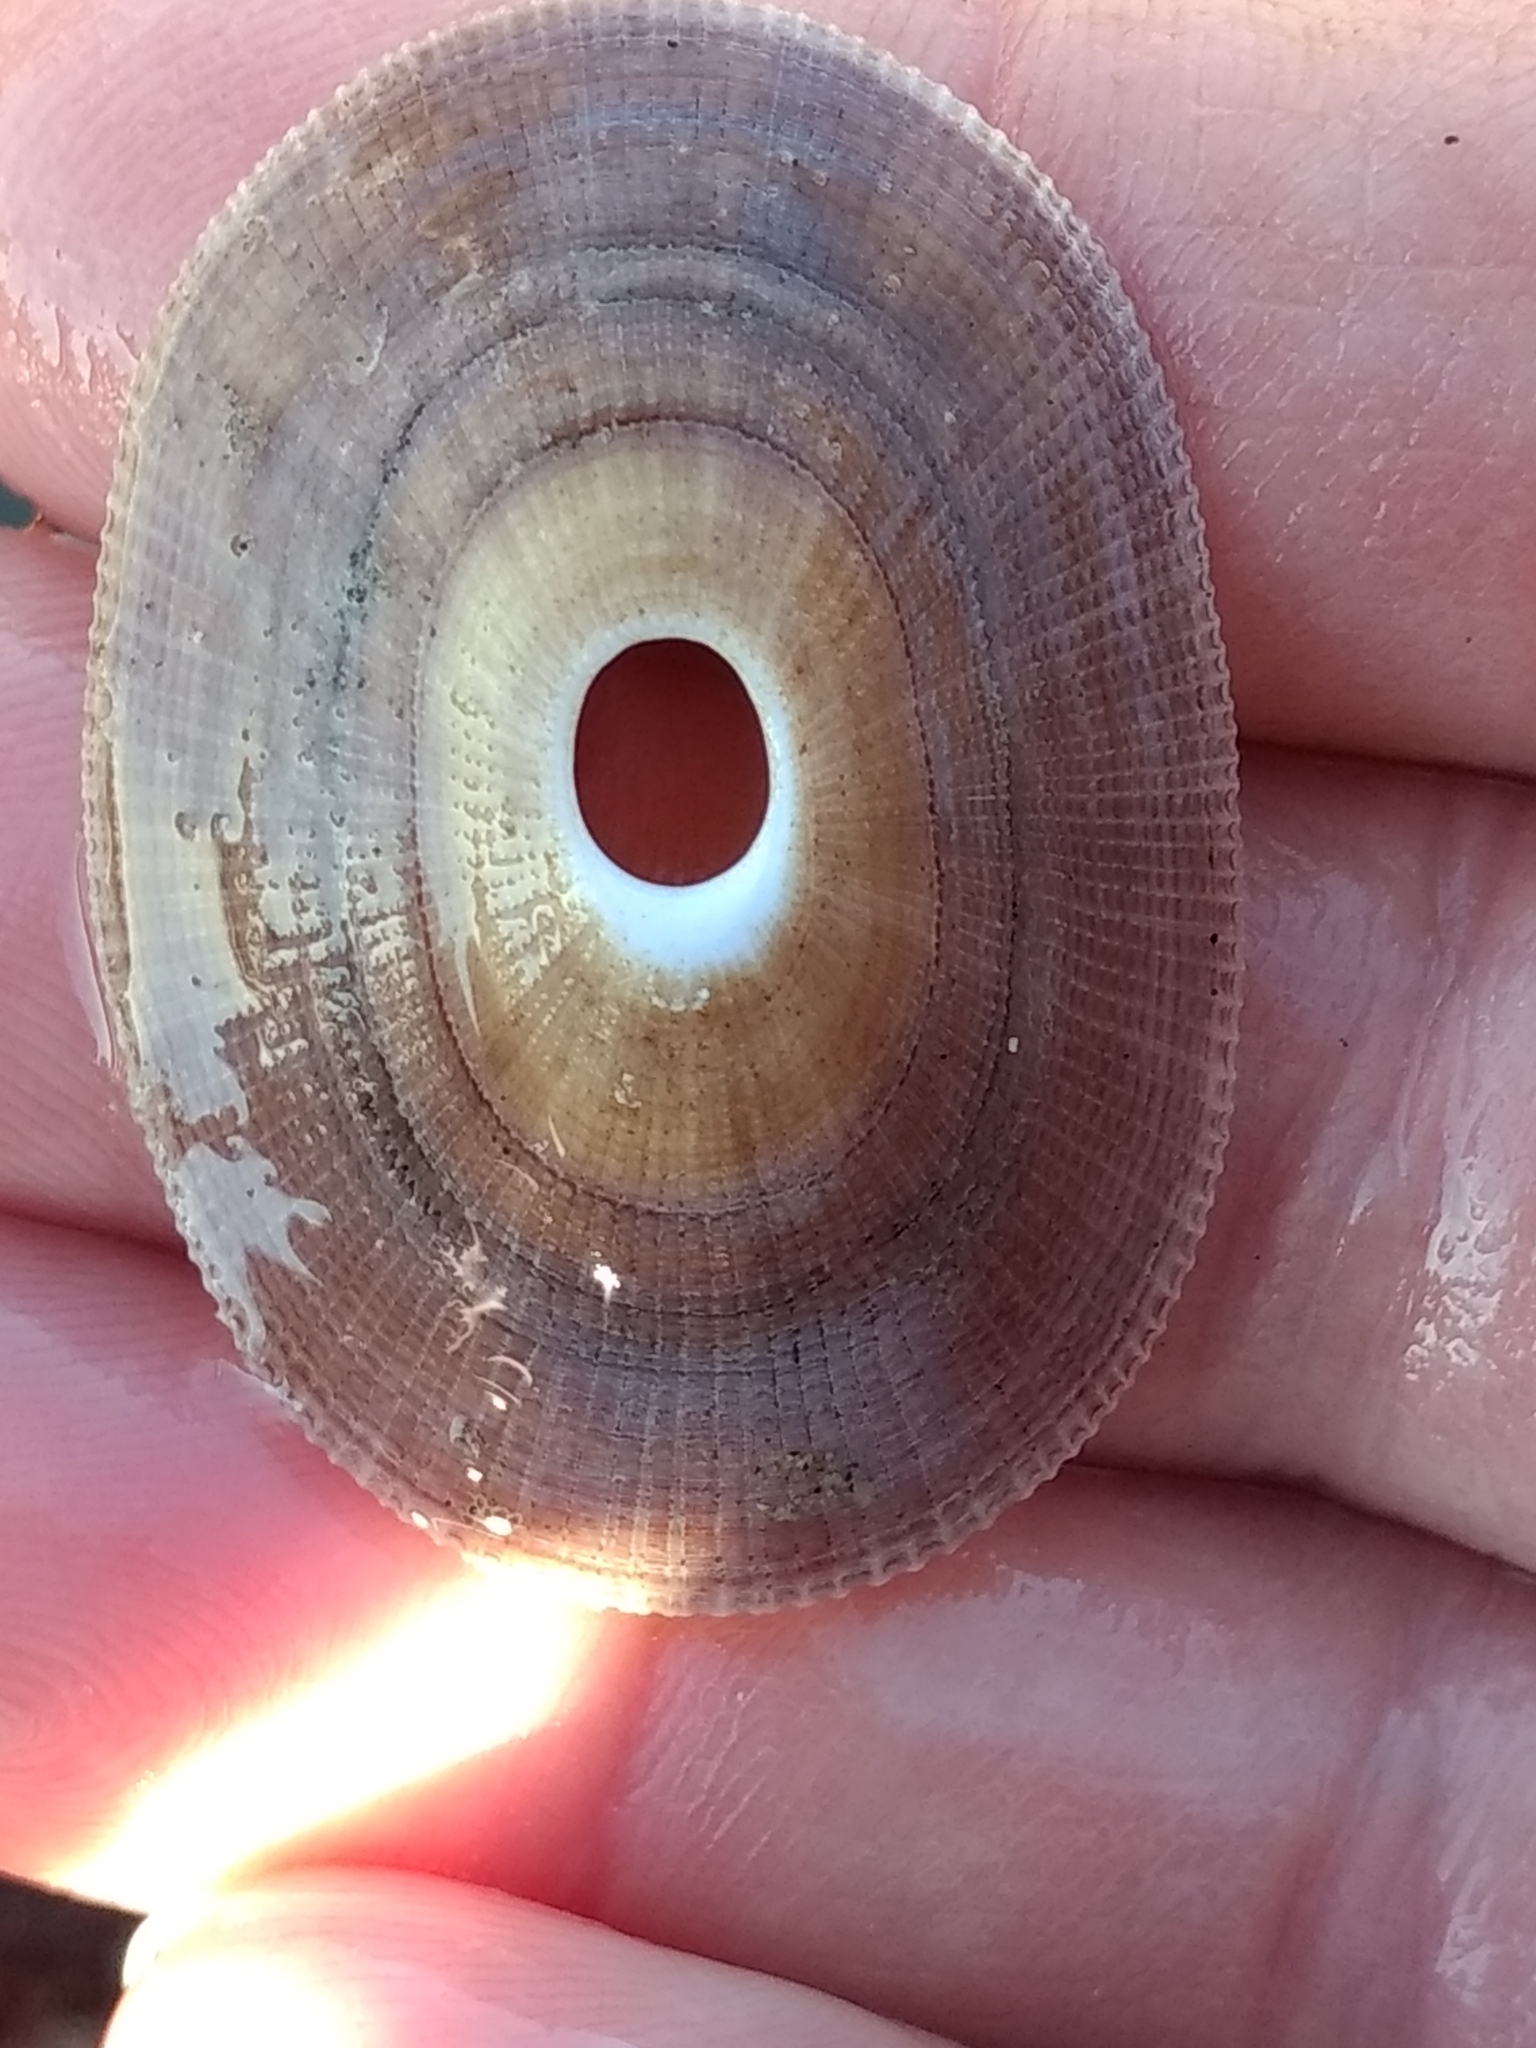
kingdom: Animalia
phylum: Mollusca
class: Gastropoda
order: Lepetellida
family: Fissurellidae
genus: Megathura
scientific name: Megathura crenulata
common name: Giant keyhole limpet
